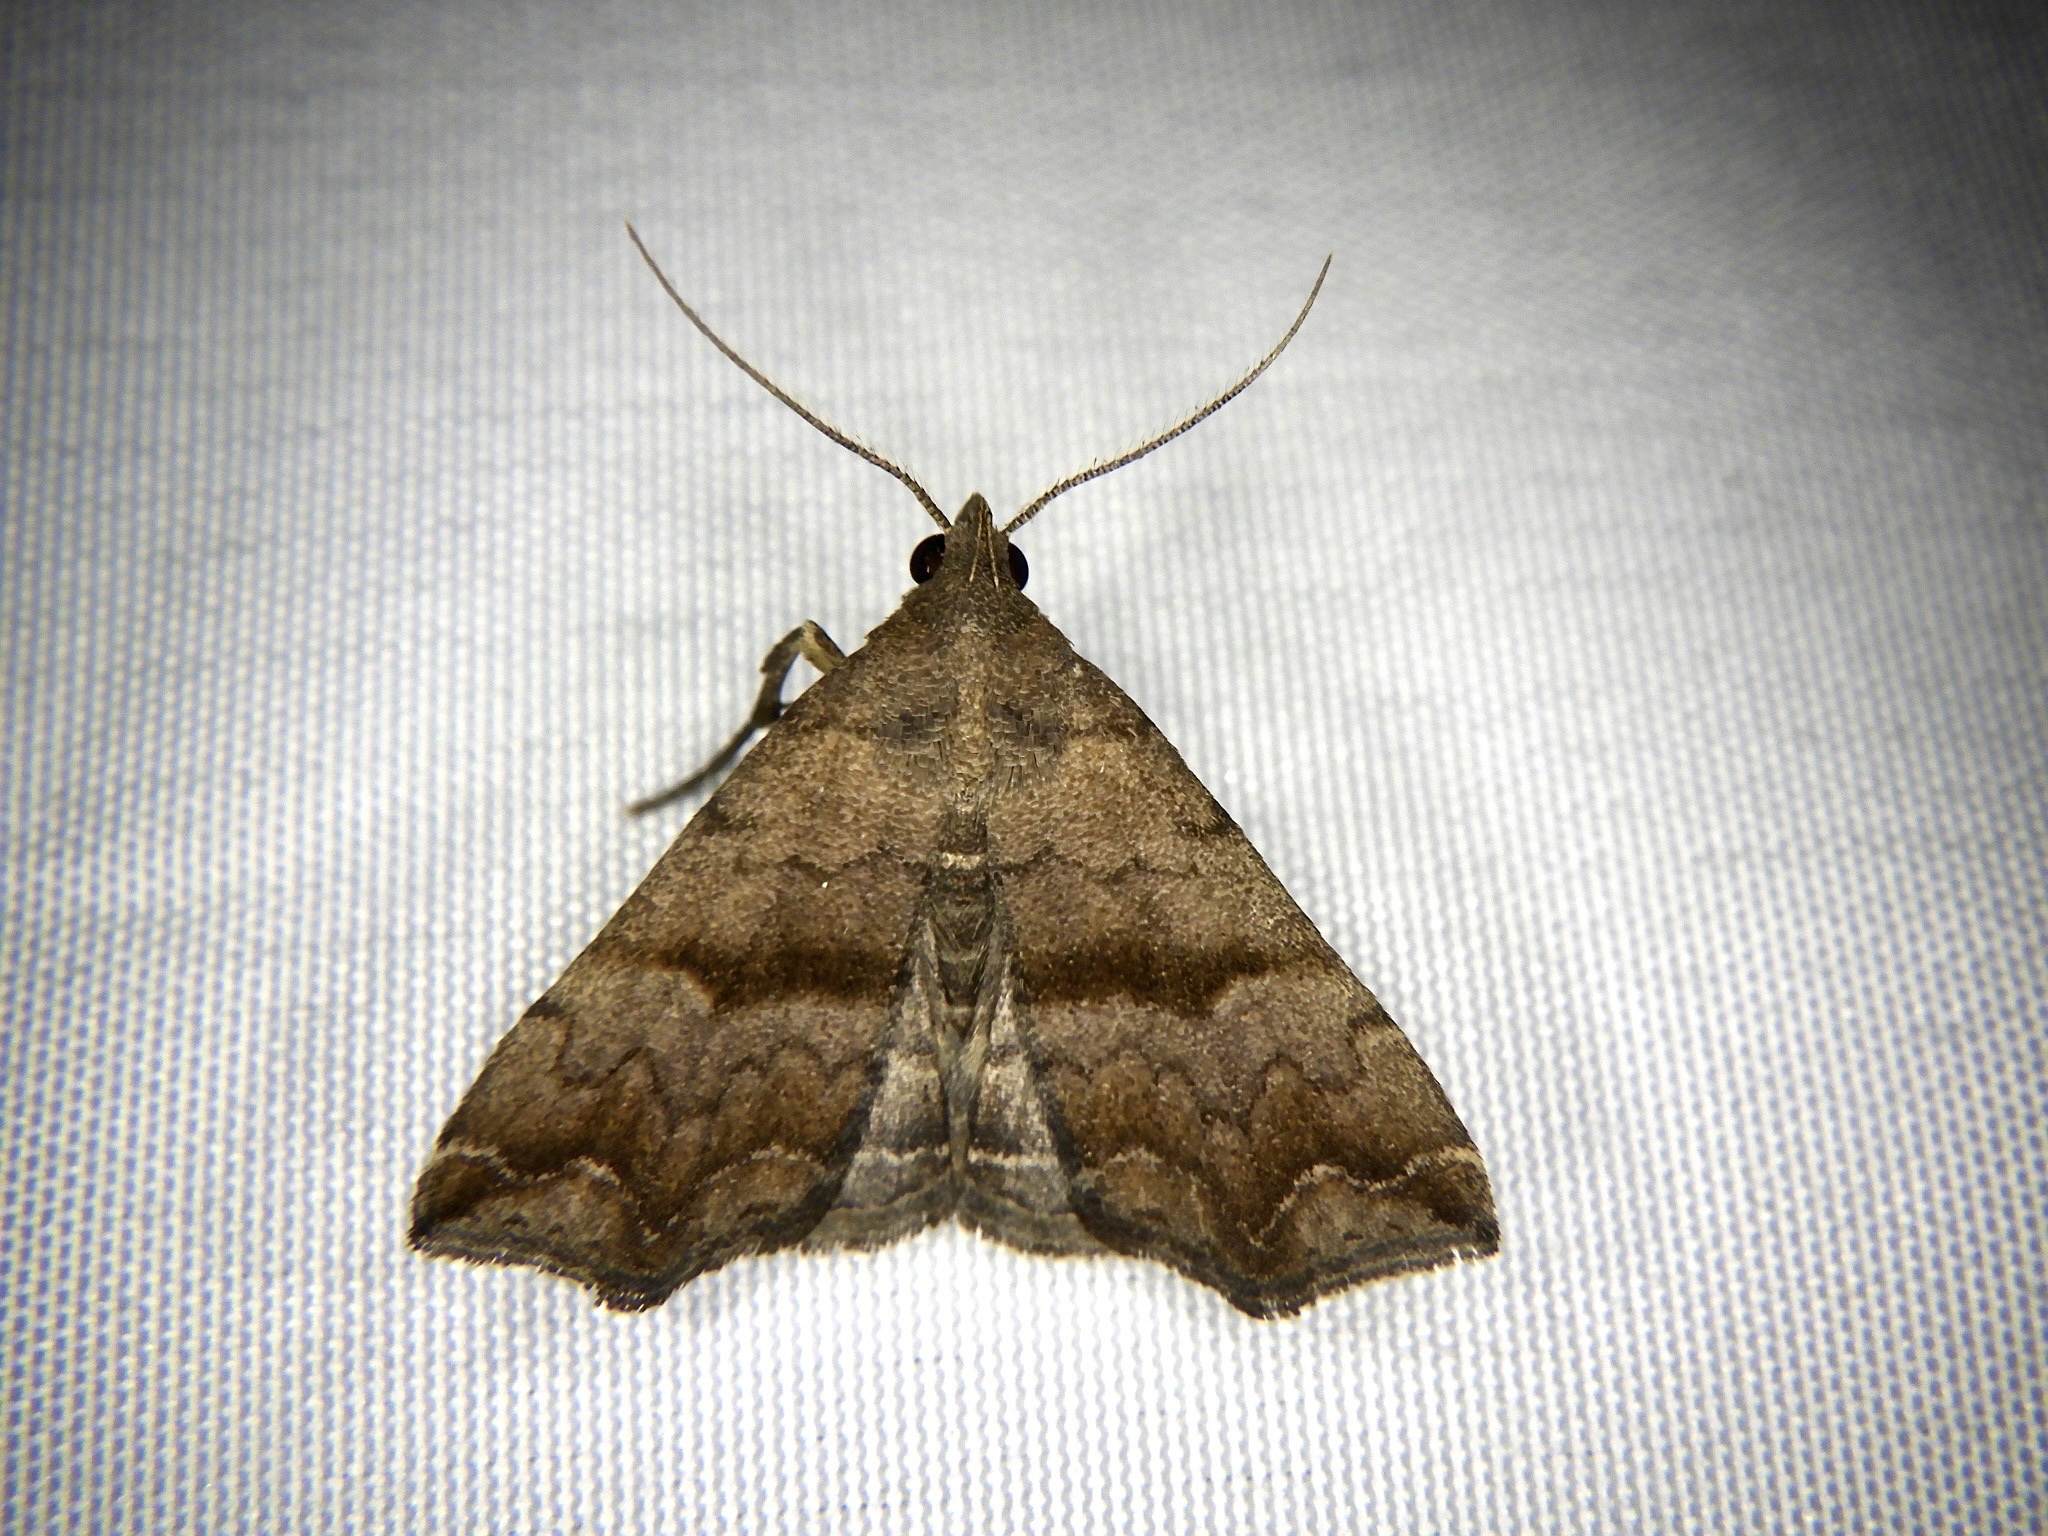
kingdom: Animalia
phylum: Arthropoda
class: Insecta
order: Lepidoptera
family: Erebidae
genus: Polypogon
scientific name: Polypogon Hipoepa fractalis
